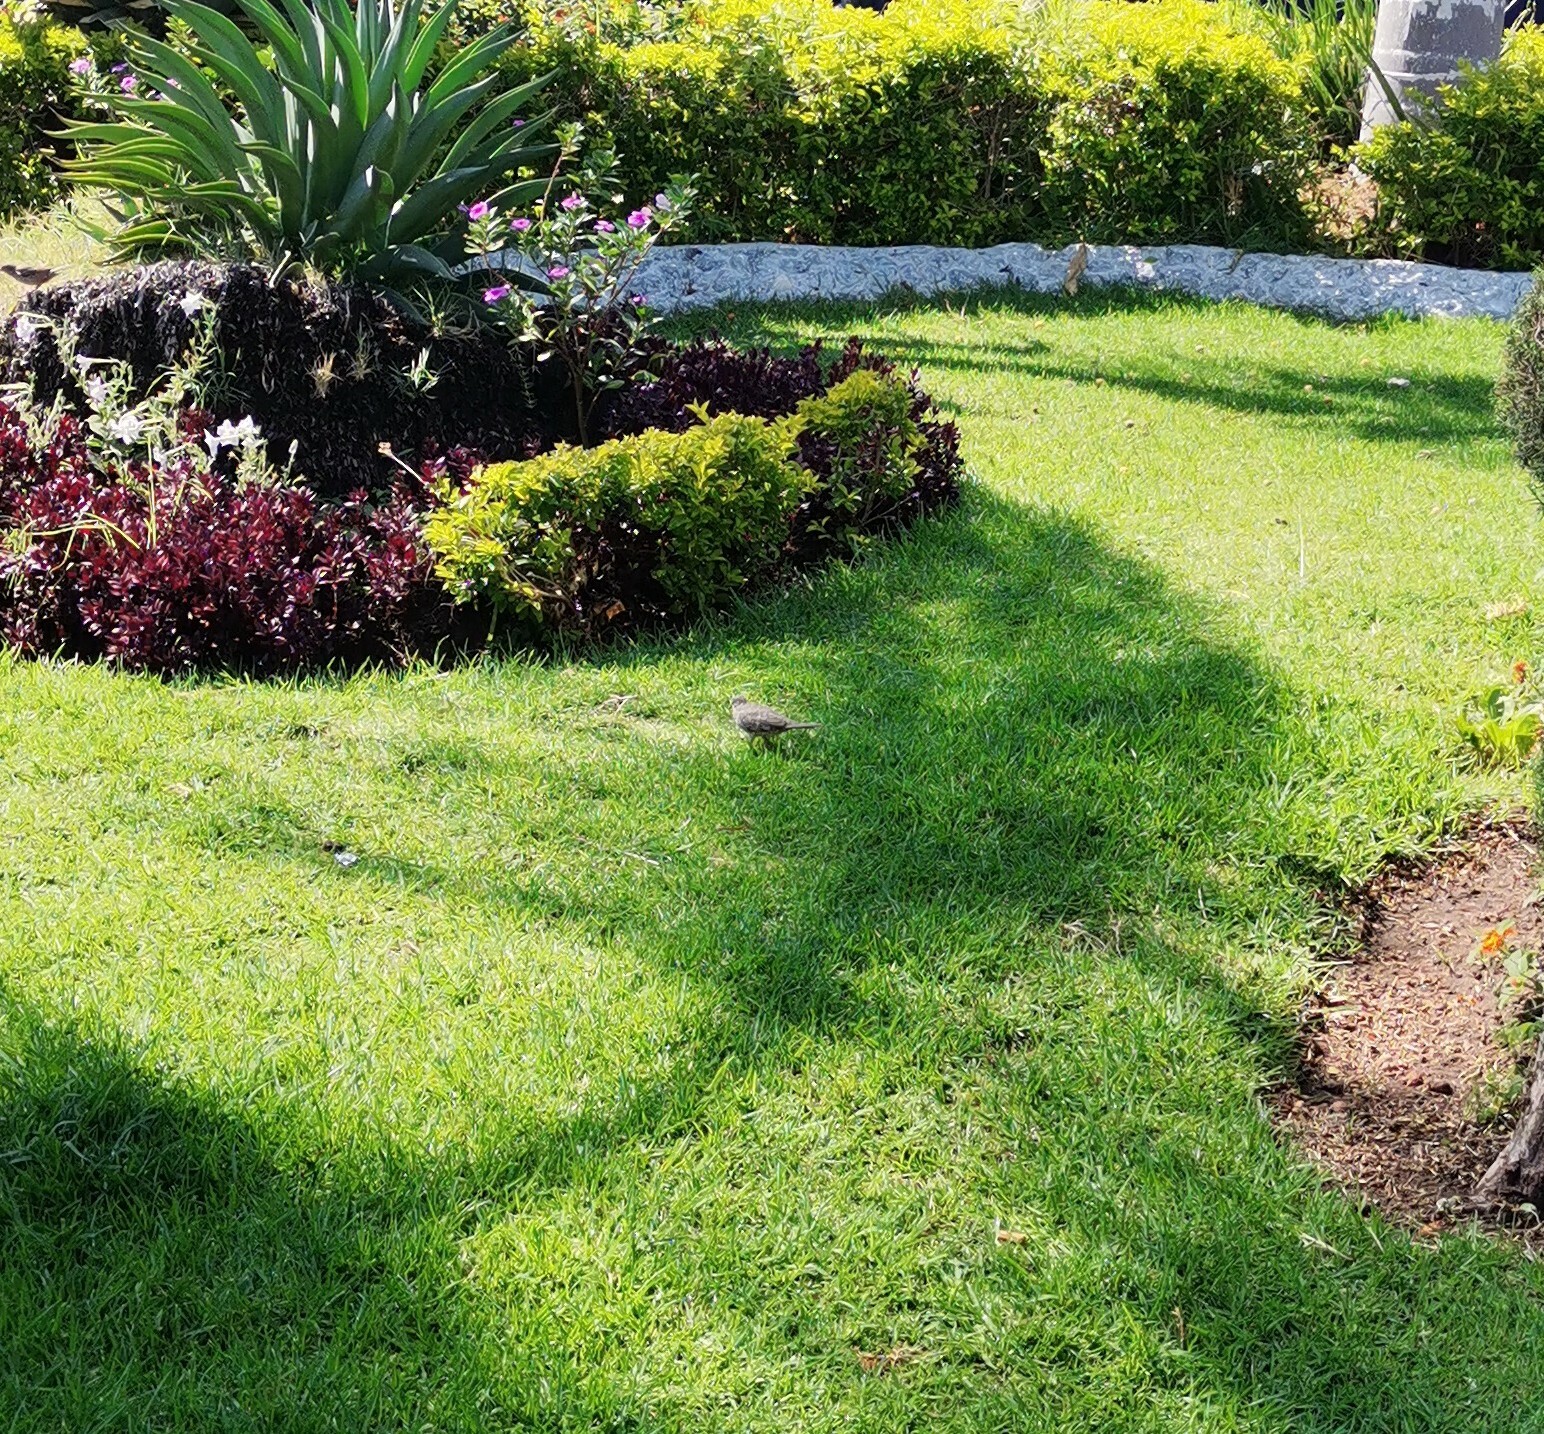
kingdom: Animalia
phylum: Chordata
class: Aves
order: Columbiformes
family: Columbidae
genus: Columbina
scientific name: Columbina inca
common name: Inca dove
